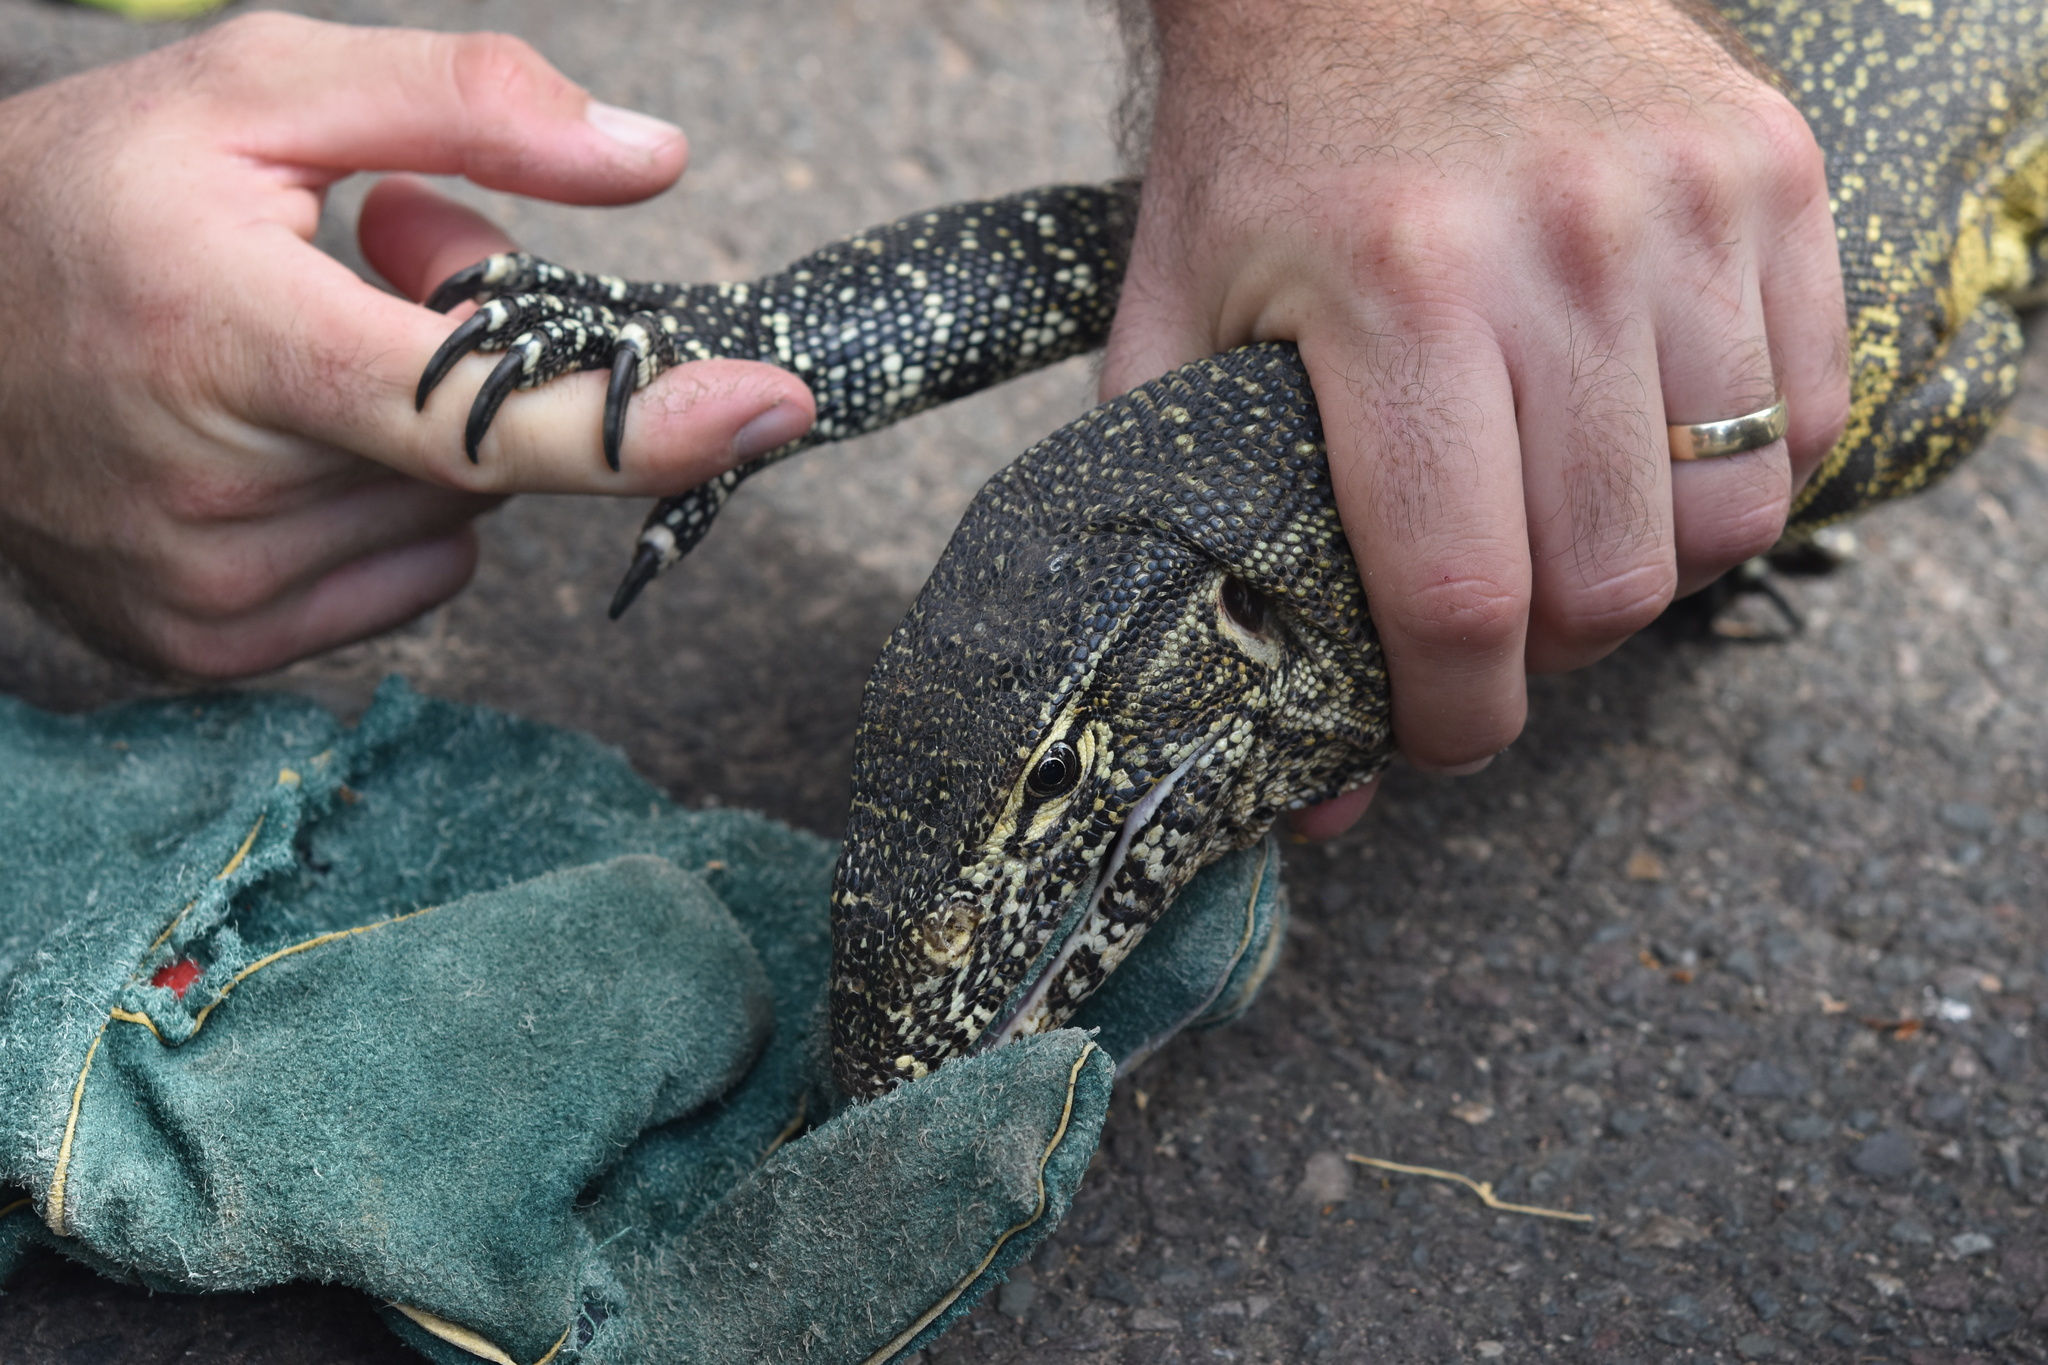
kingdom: Animalia
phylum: Chordata
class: Squamata
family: Varanidae
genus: Varanus
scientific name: Varanus niloticus
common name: Nile monitor
